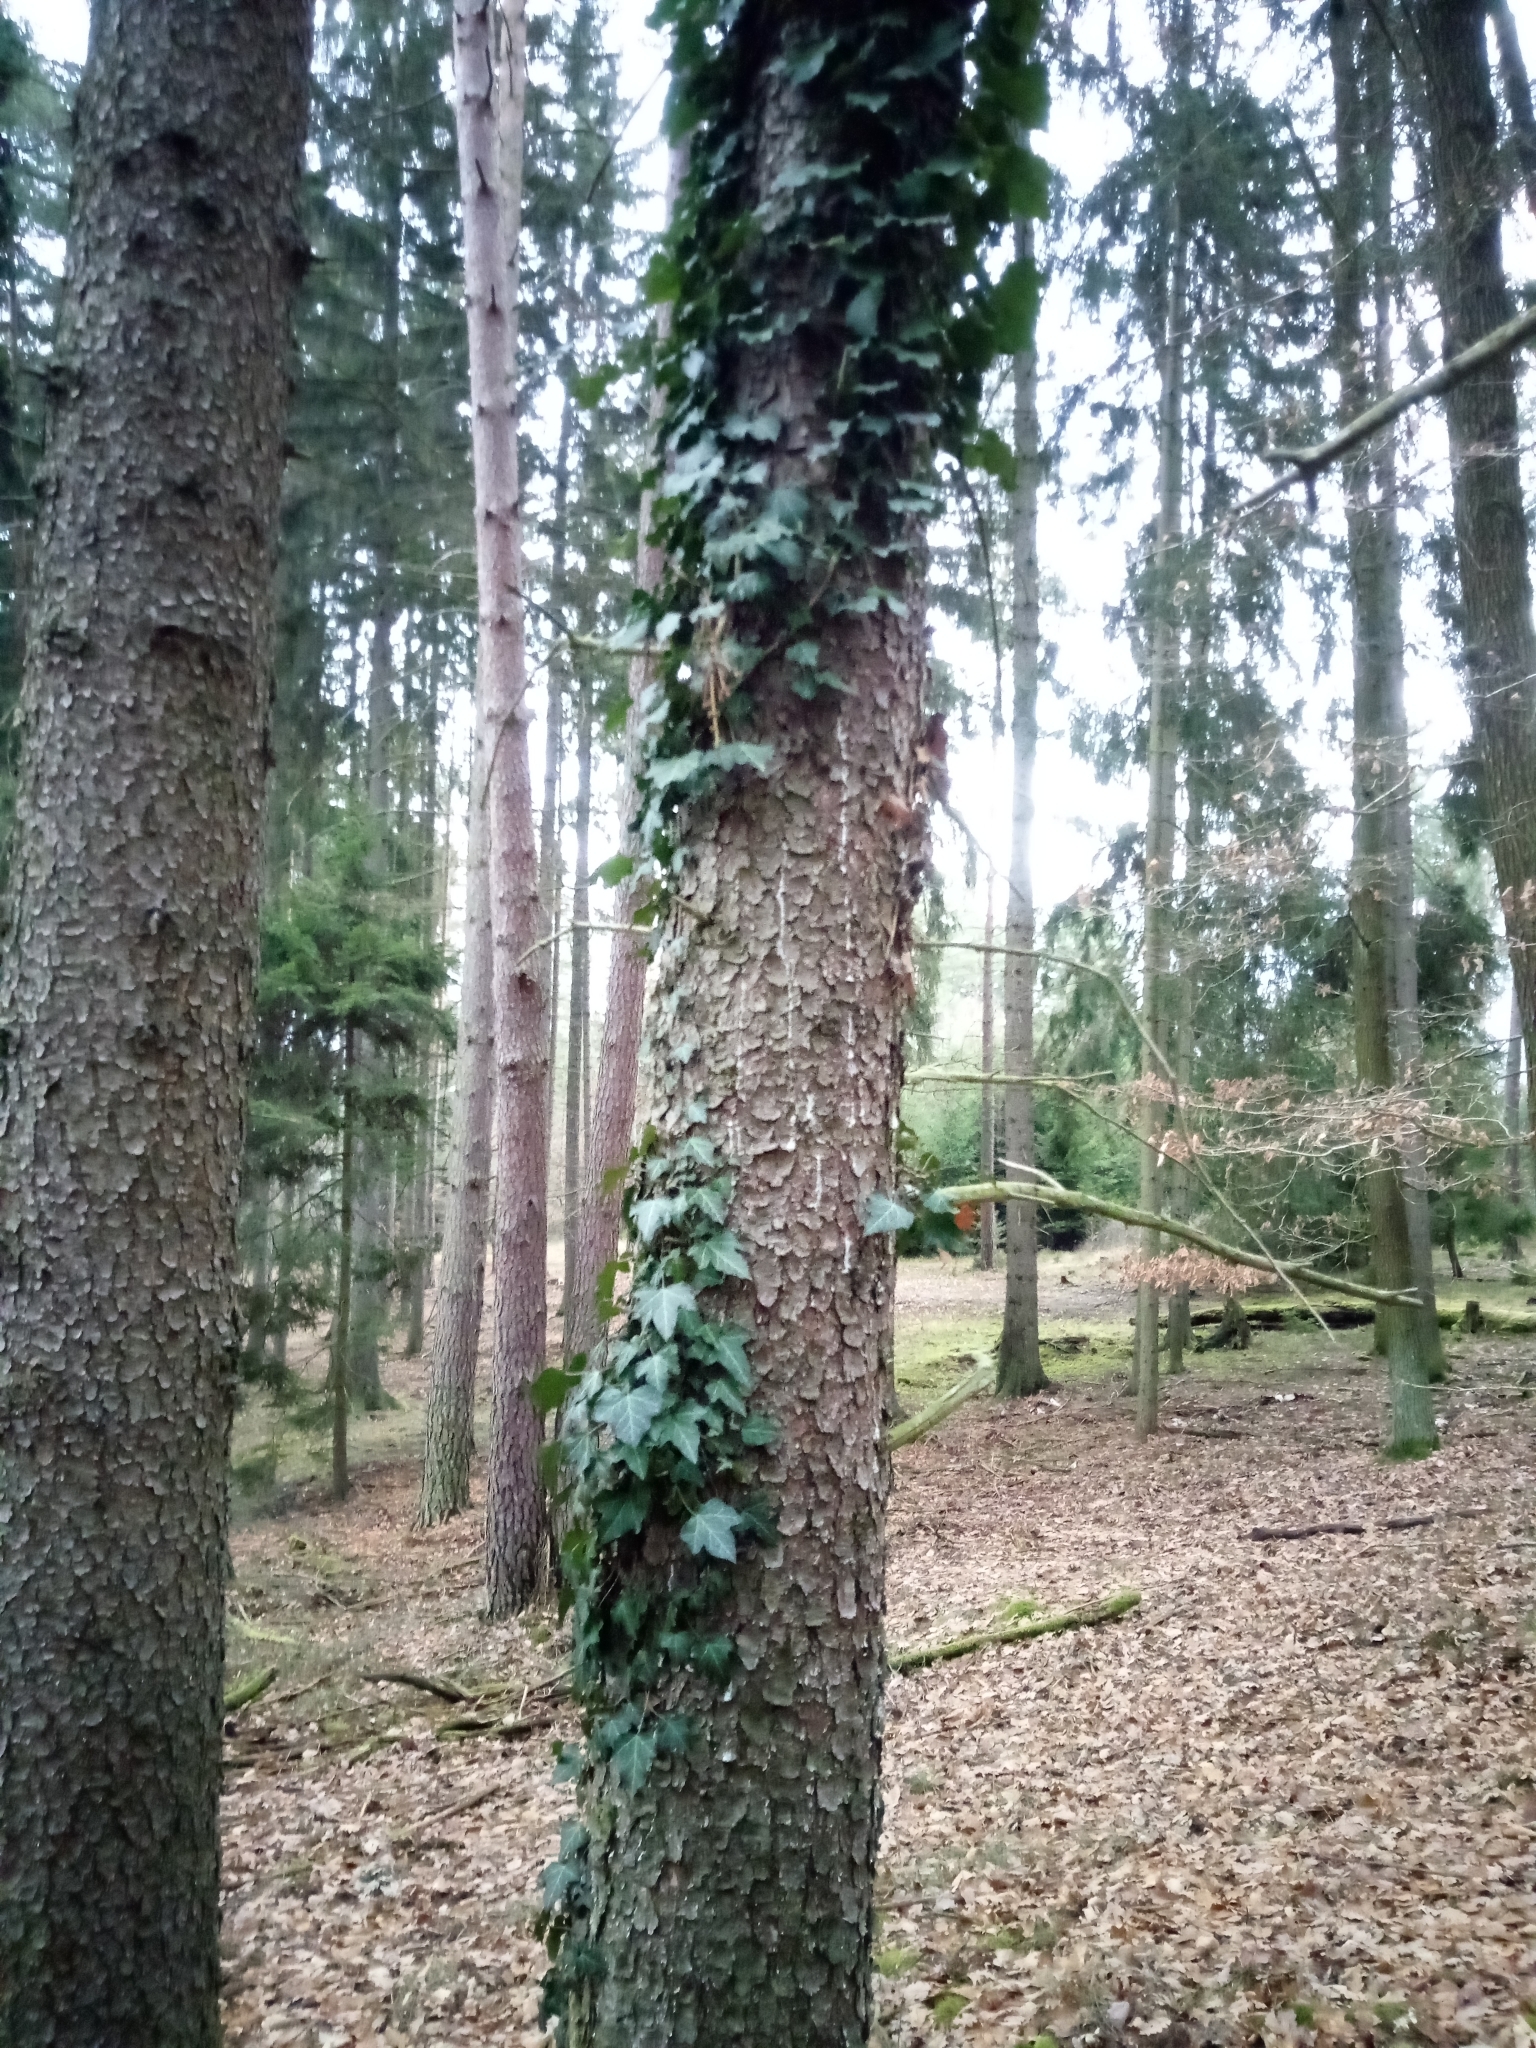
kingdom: Plantae
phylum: Tracheophyta
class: Magnoliopsida
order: Apiales
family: Araliaceae
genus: Hedera
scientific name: Hedera helix
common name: Ivy
